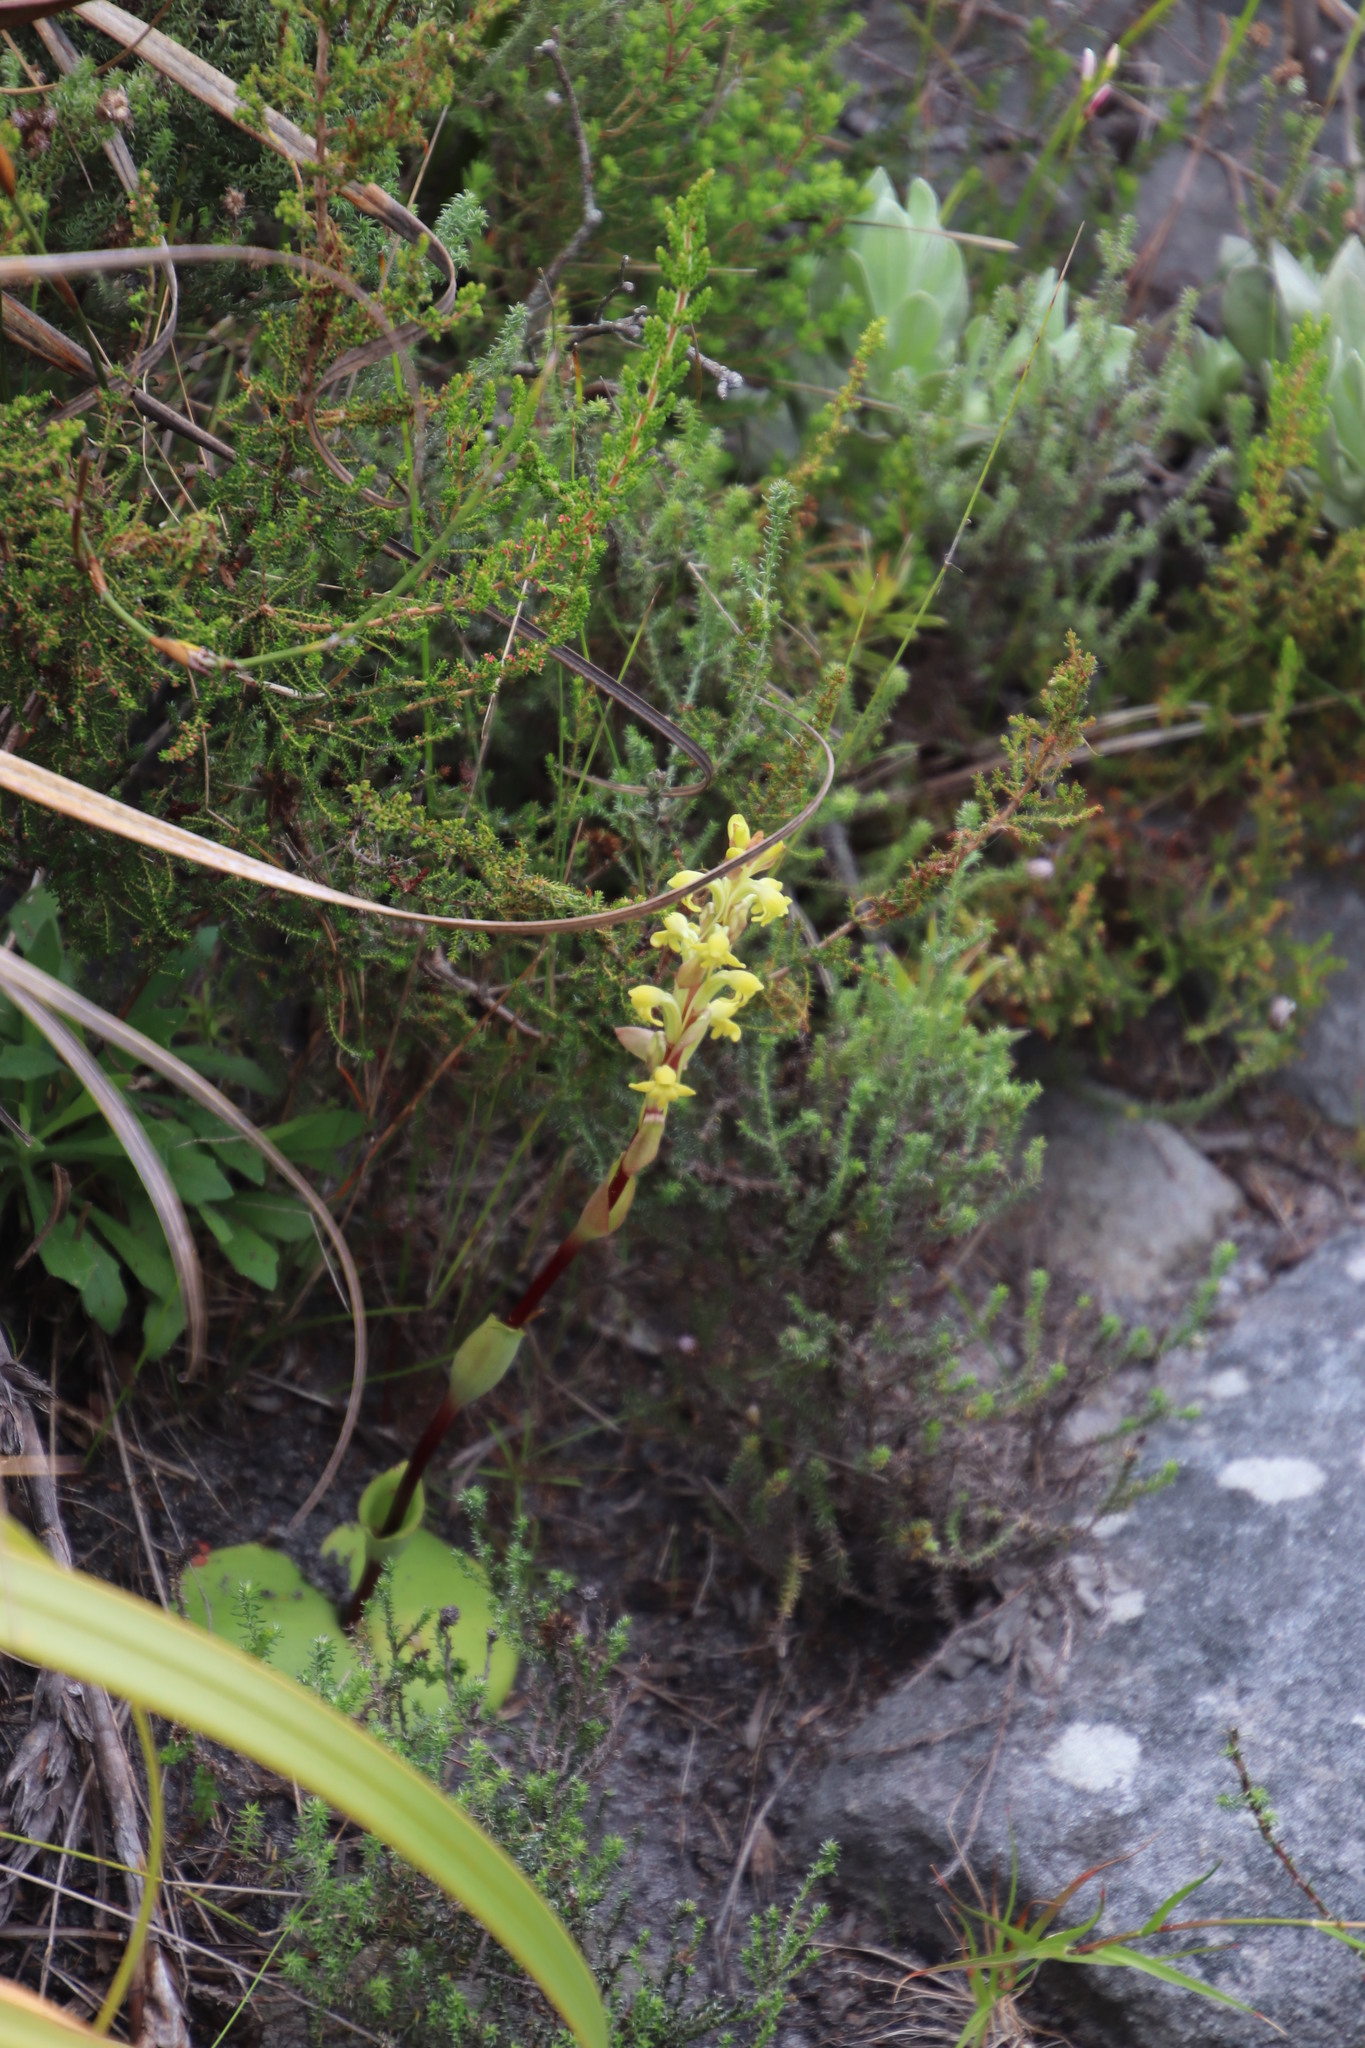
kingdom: Plantae
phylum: Tracheophyta
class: Liliopsida
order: Asparagales
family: Orchidaceae
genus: Satyrium
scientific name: Satyrium bicorne
